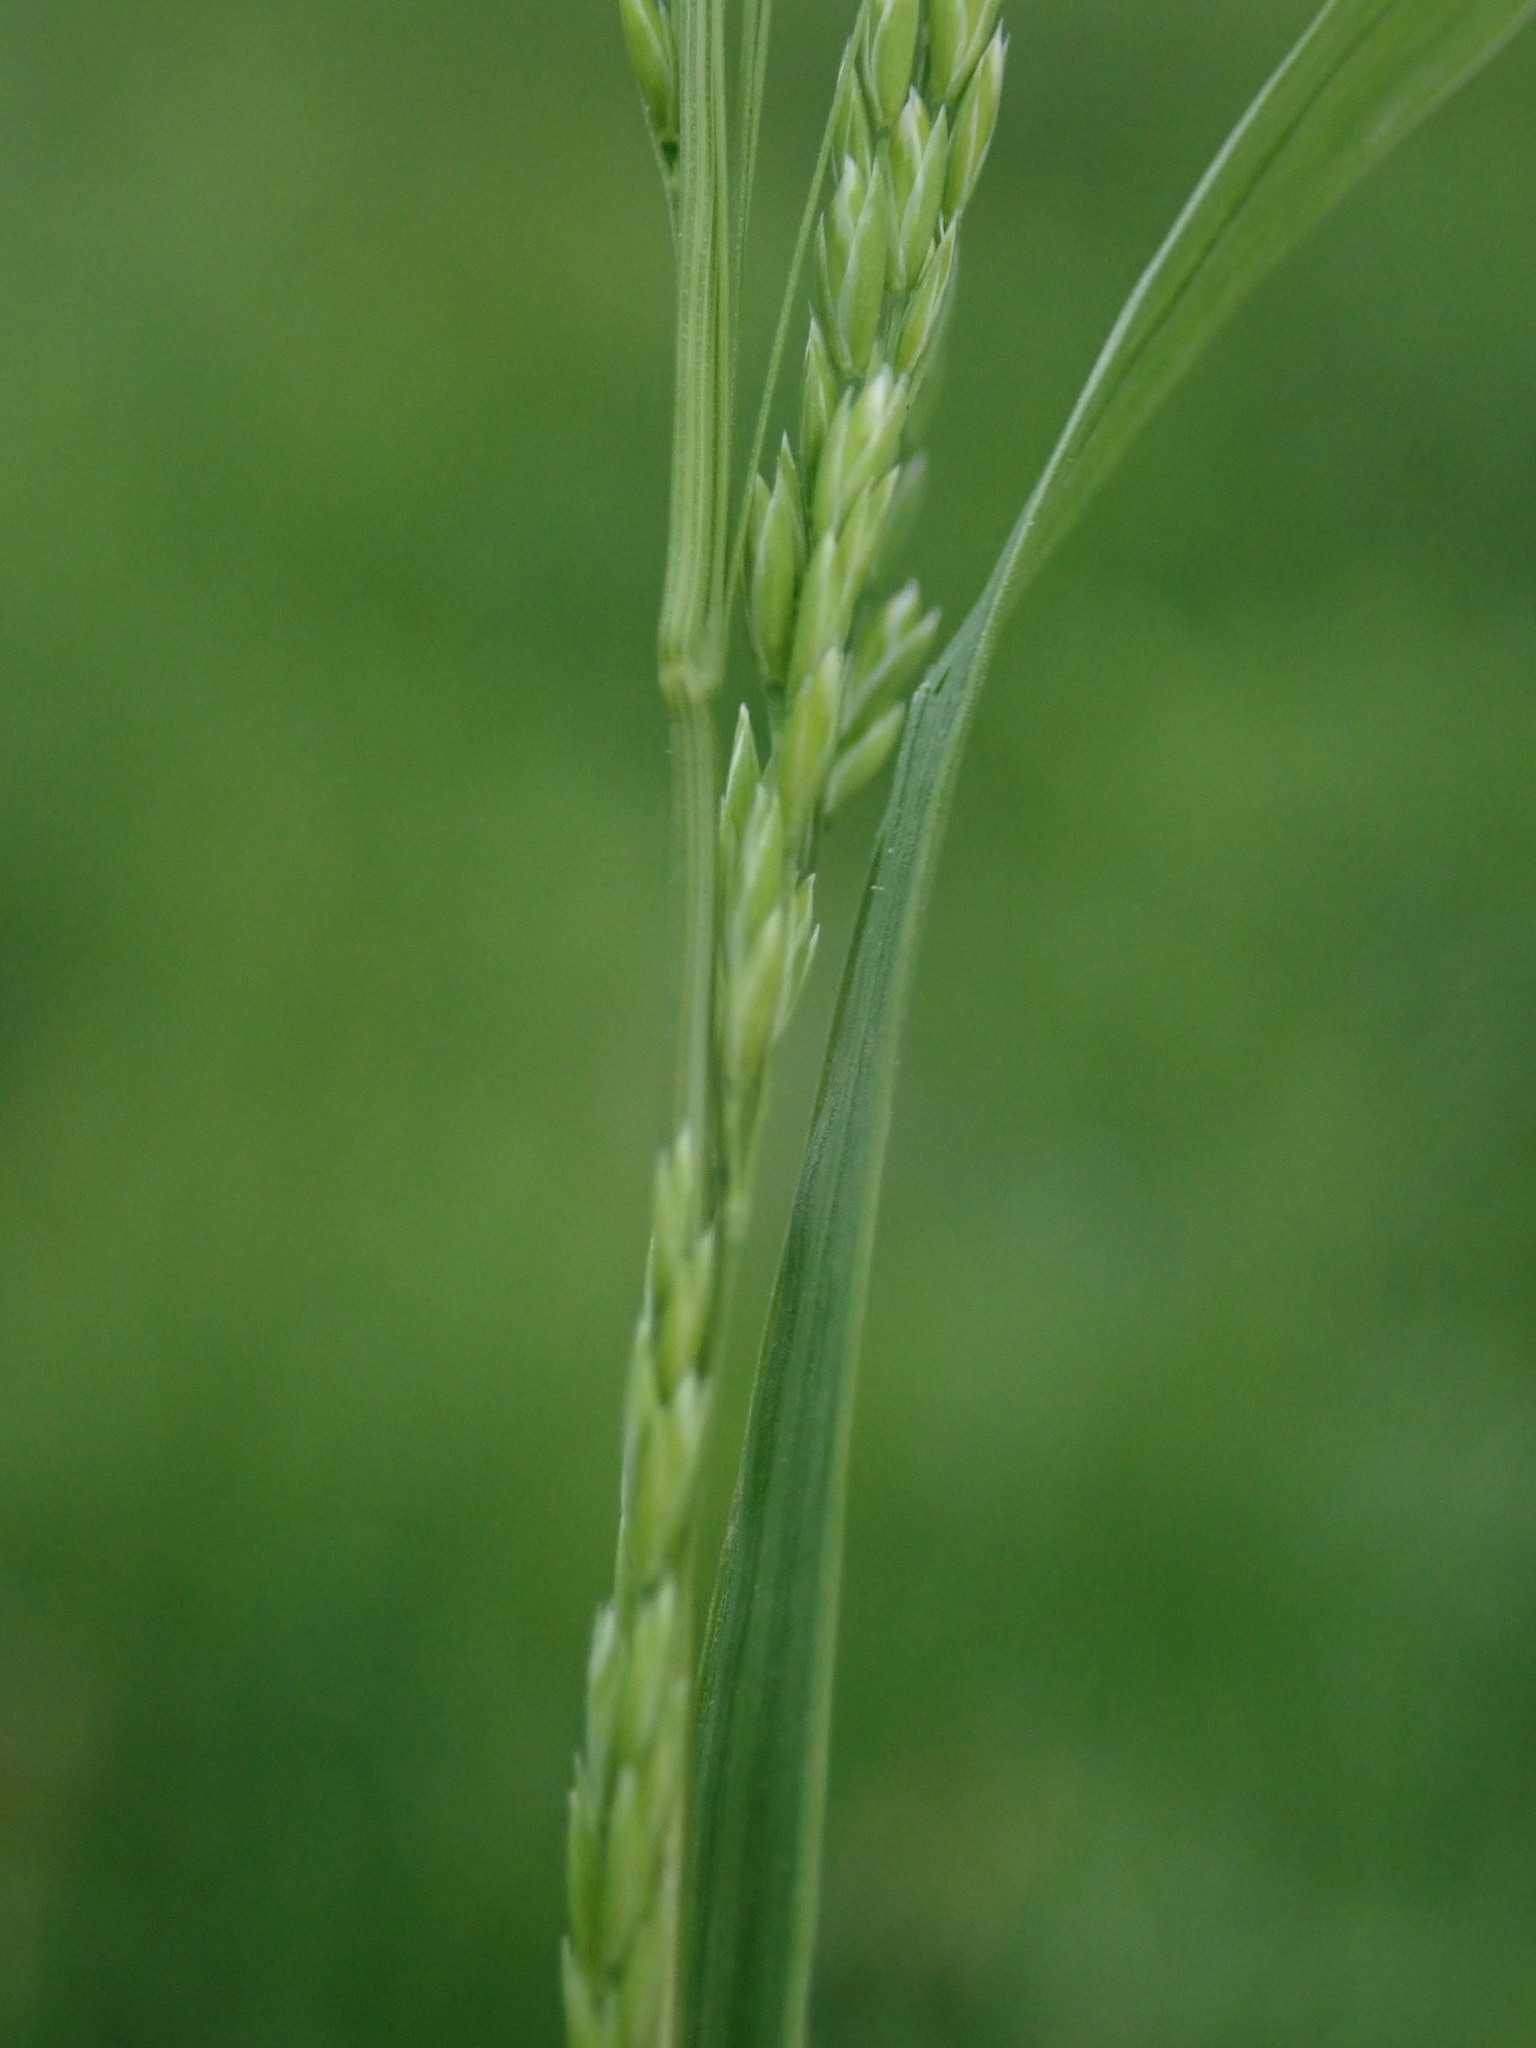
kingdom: Plantae
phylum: Tracheophyta
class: Liliopsida
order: Poales
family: Poaceae
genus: Poa
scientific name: Poa trivialis
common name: Rough bluegrass
